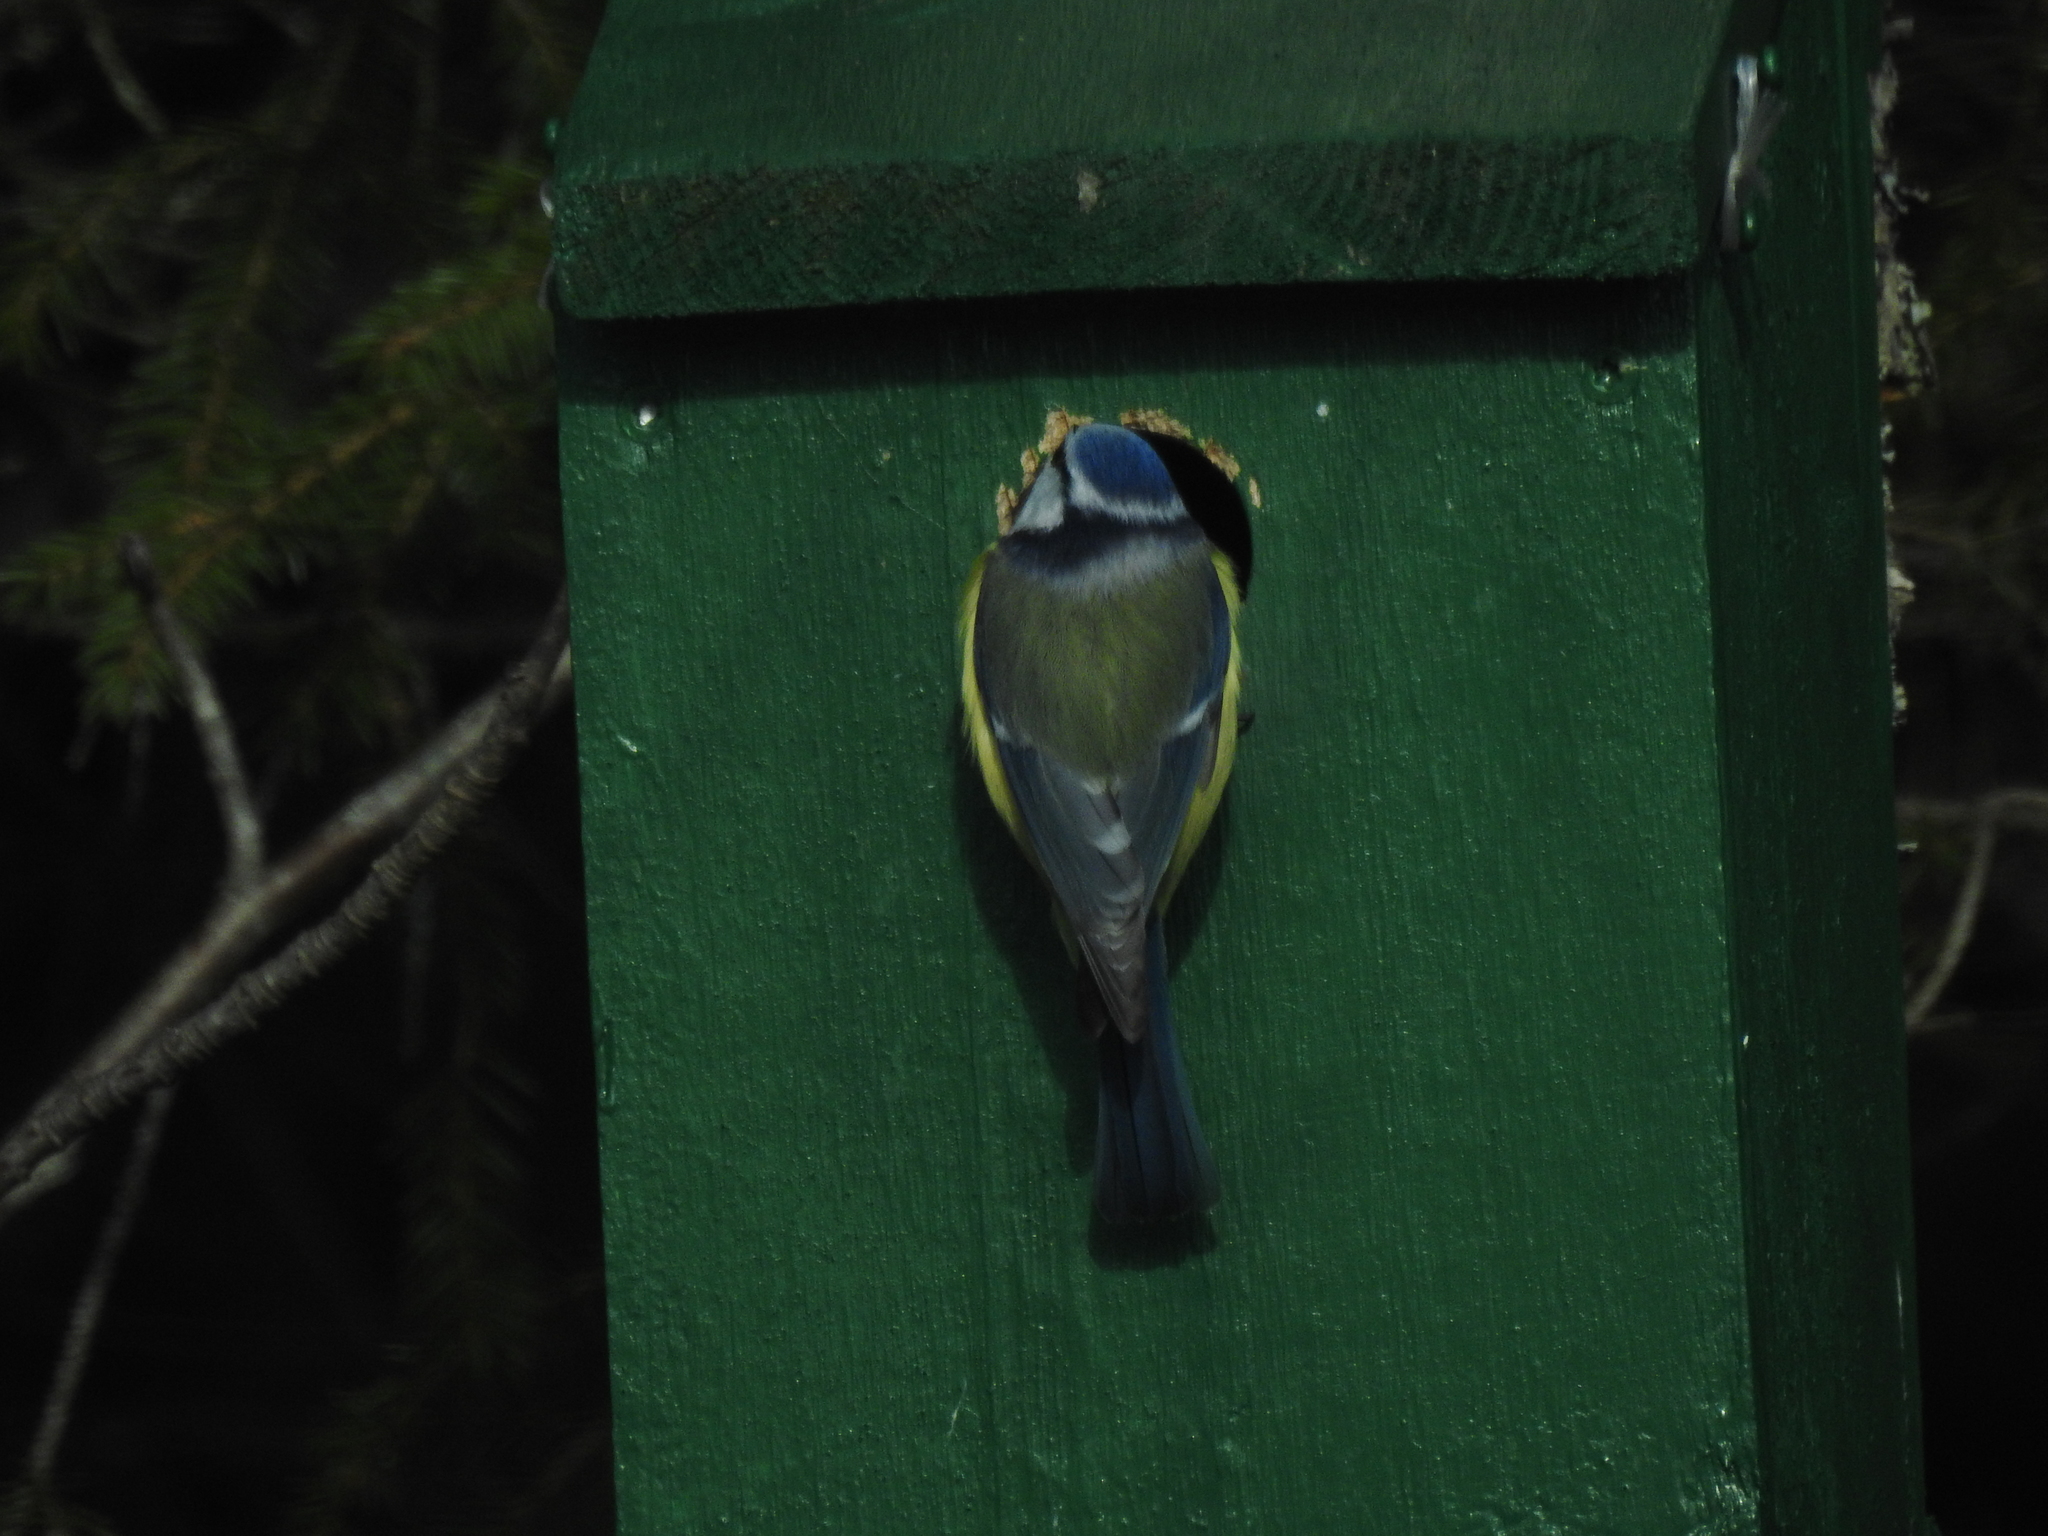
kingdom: Animalia
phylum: Chordata
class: Aves
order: Passeriformes
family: Paridae
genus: Cyanistes
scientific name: Cyanistes caeruleus
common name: Eurasian blue tit
